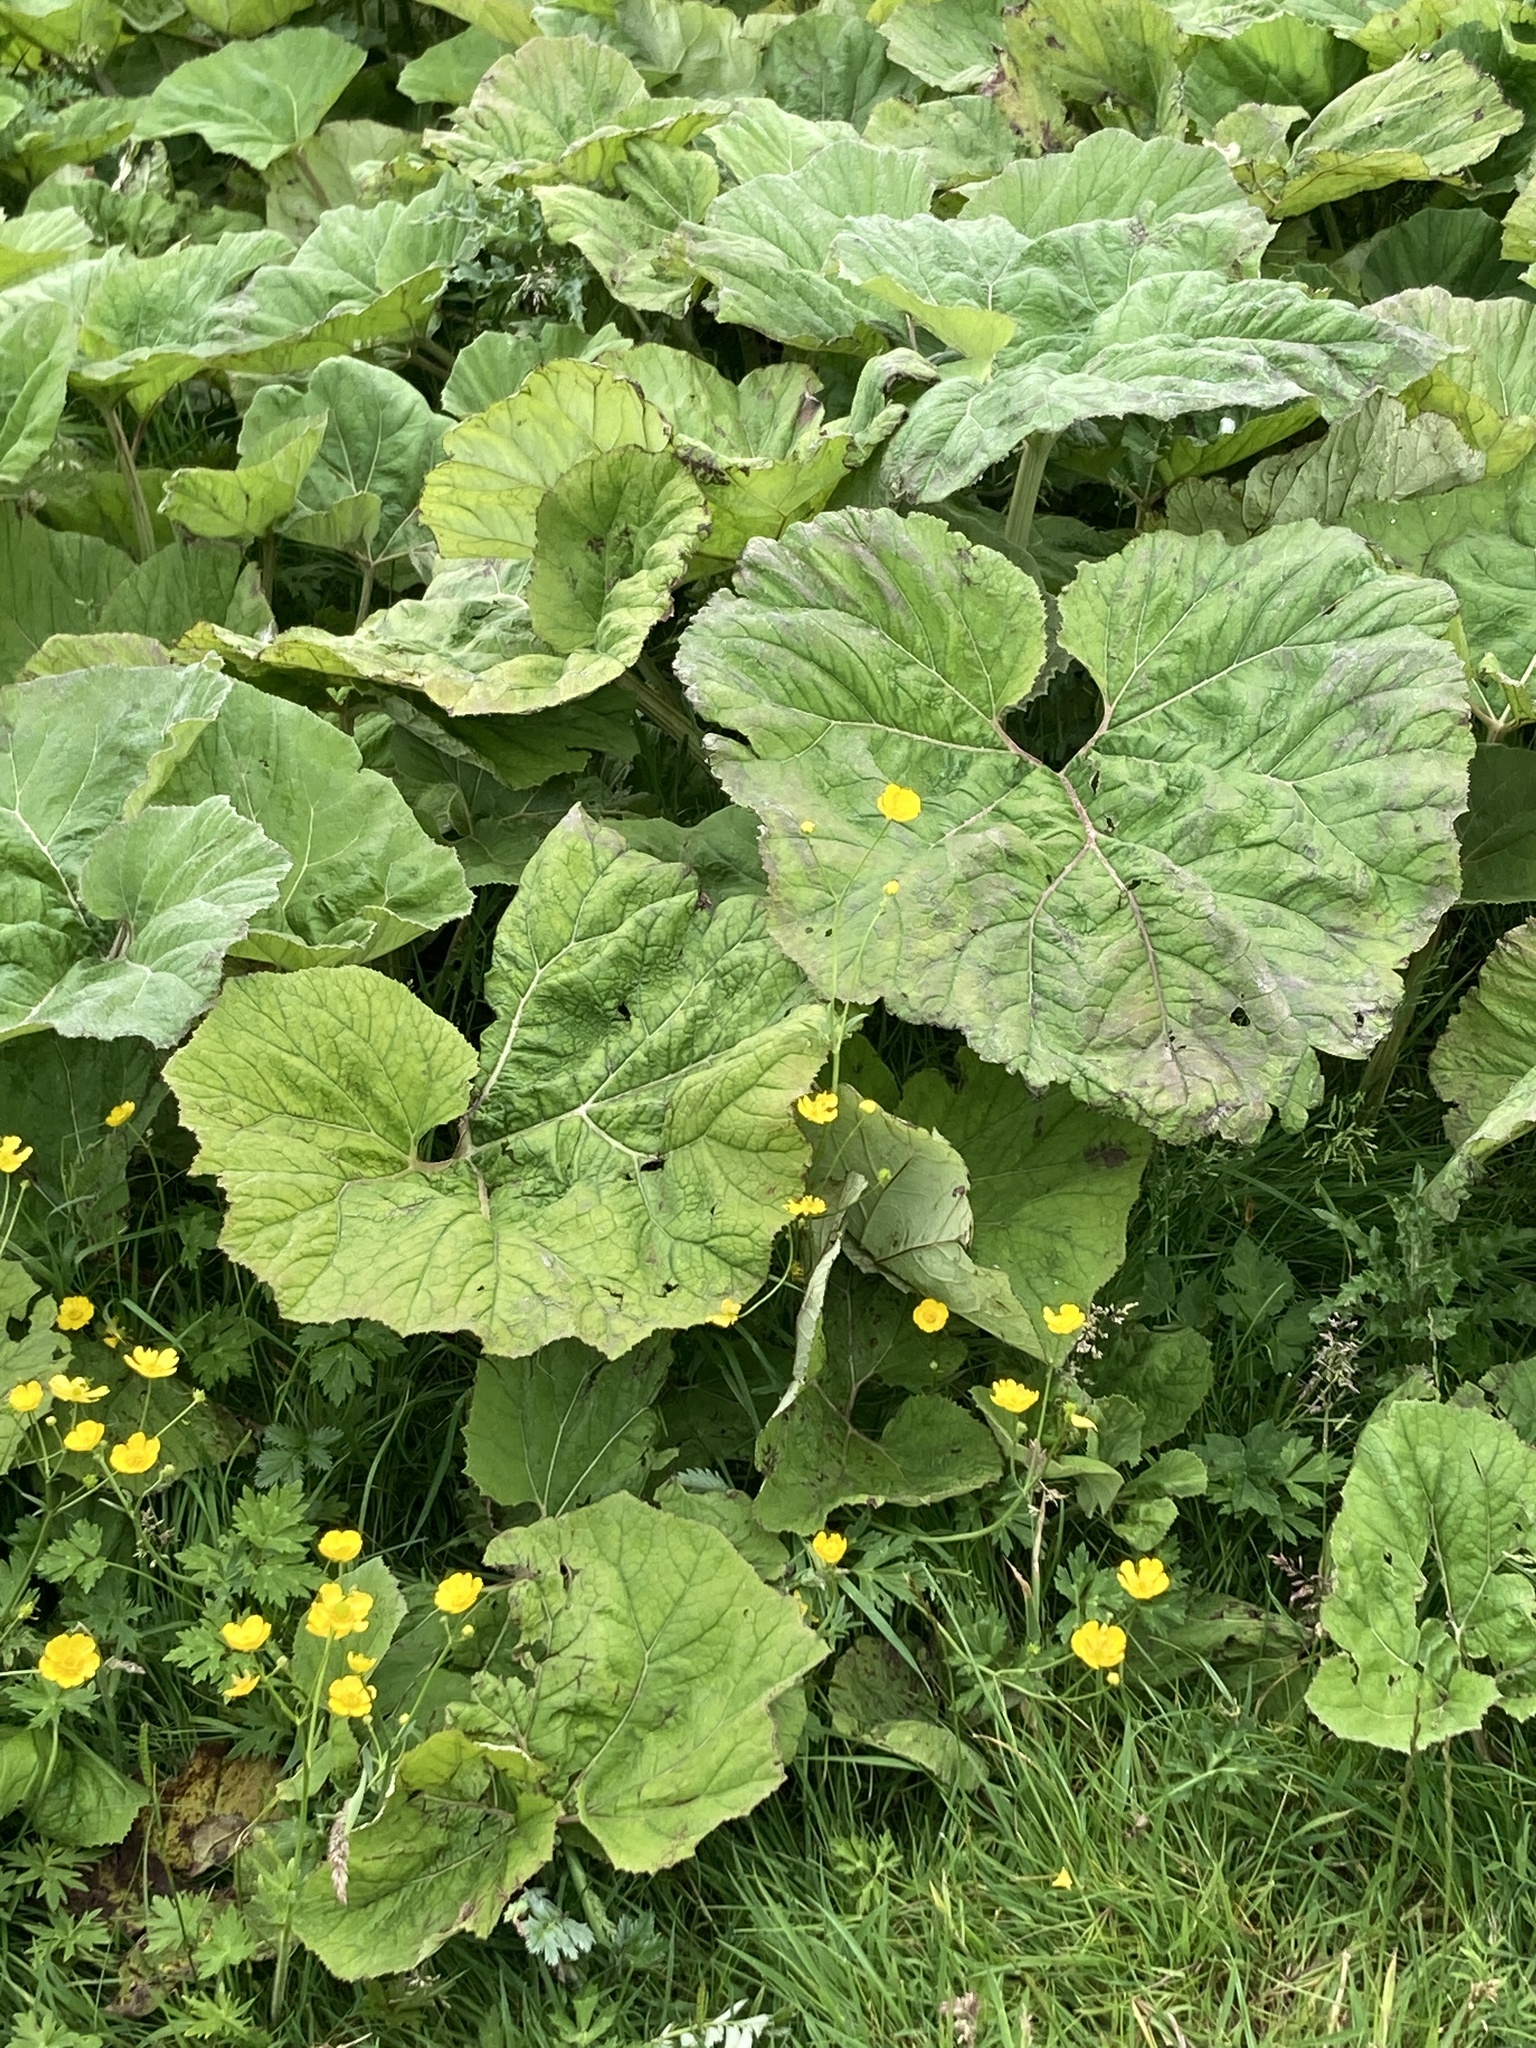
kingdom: Plantae
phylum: Tracheophyta
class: Magnoliopsida
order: Asterales
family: Asteraceae
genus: Petasites
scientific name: Petasites hybridus
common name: Butterbur
